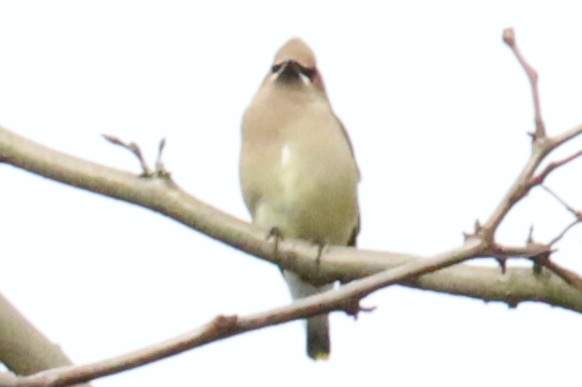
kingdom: Animalia
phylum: Chordata
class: Aves
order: Passeriformes
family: Bombycillidae
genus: Bombycilla
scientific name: Bombycilla cedrorum
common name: Cedar waxwing
